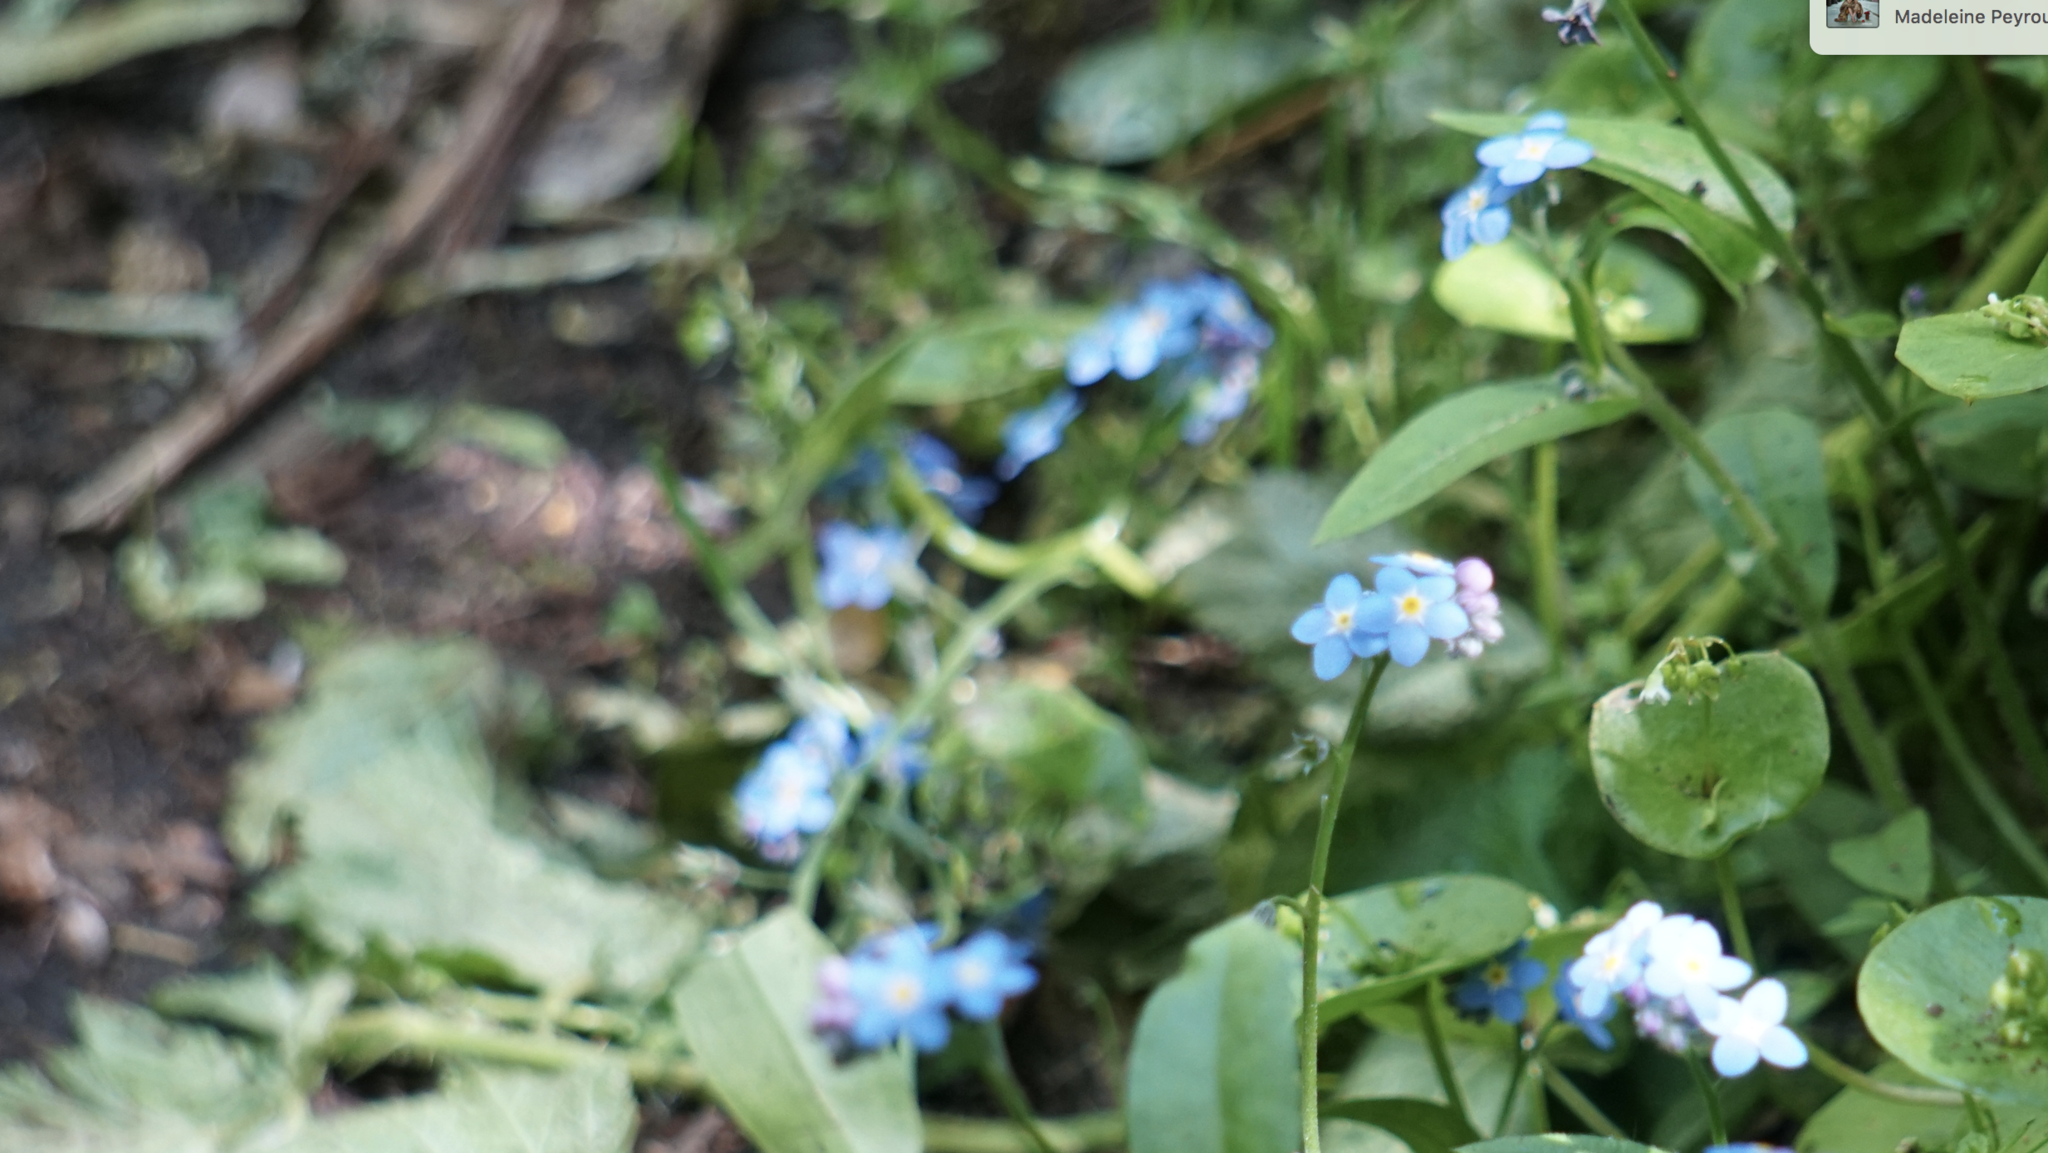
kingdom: Plantae
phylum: Tracheophyta
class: Magnoliopsida
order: Boraginales
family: Boraginaceae
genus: Myosotis
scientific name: Myosotis latifolia
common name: Broadleaf forget-me-not
